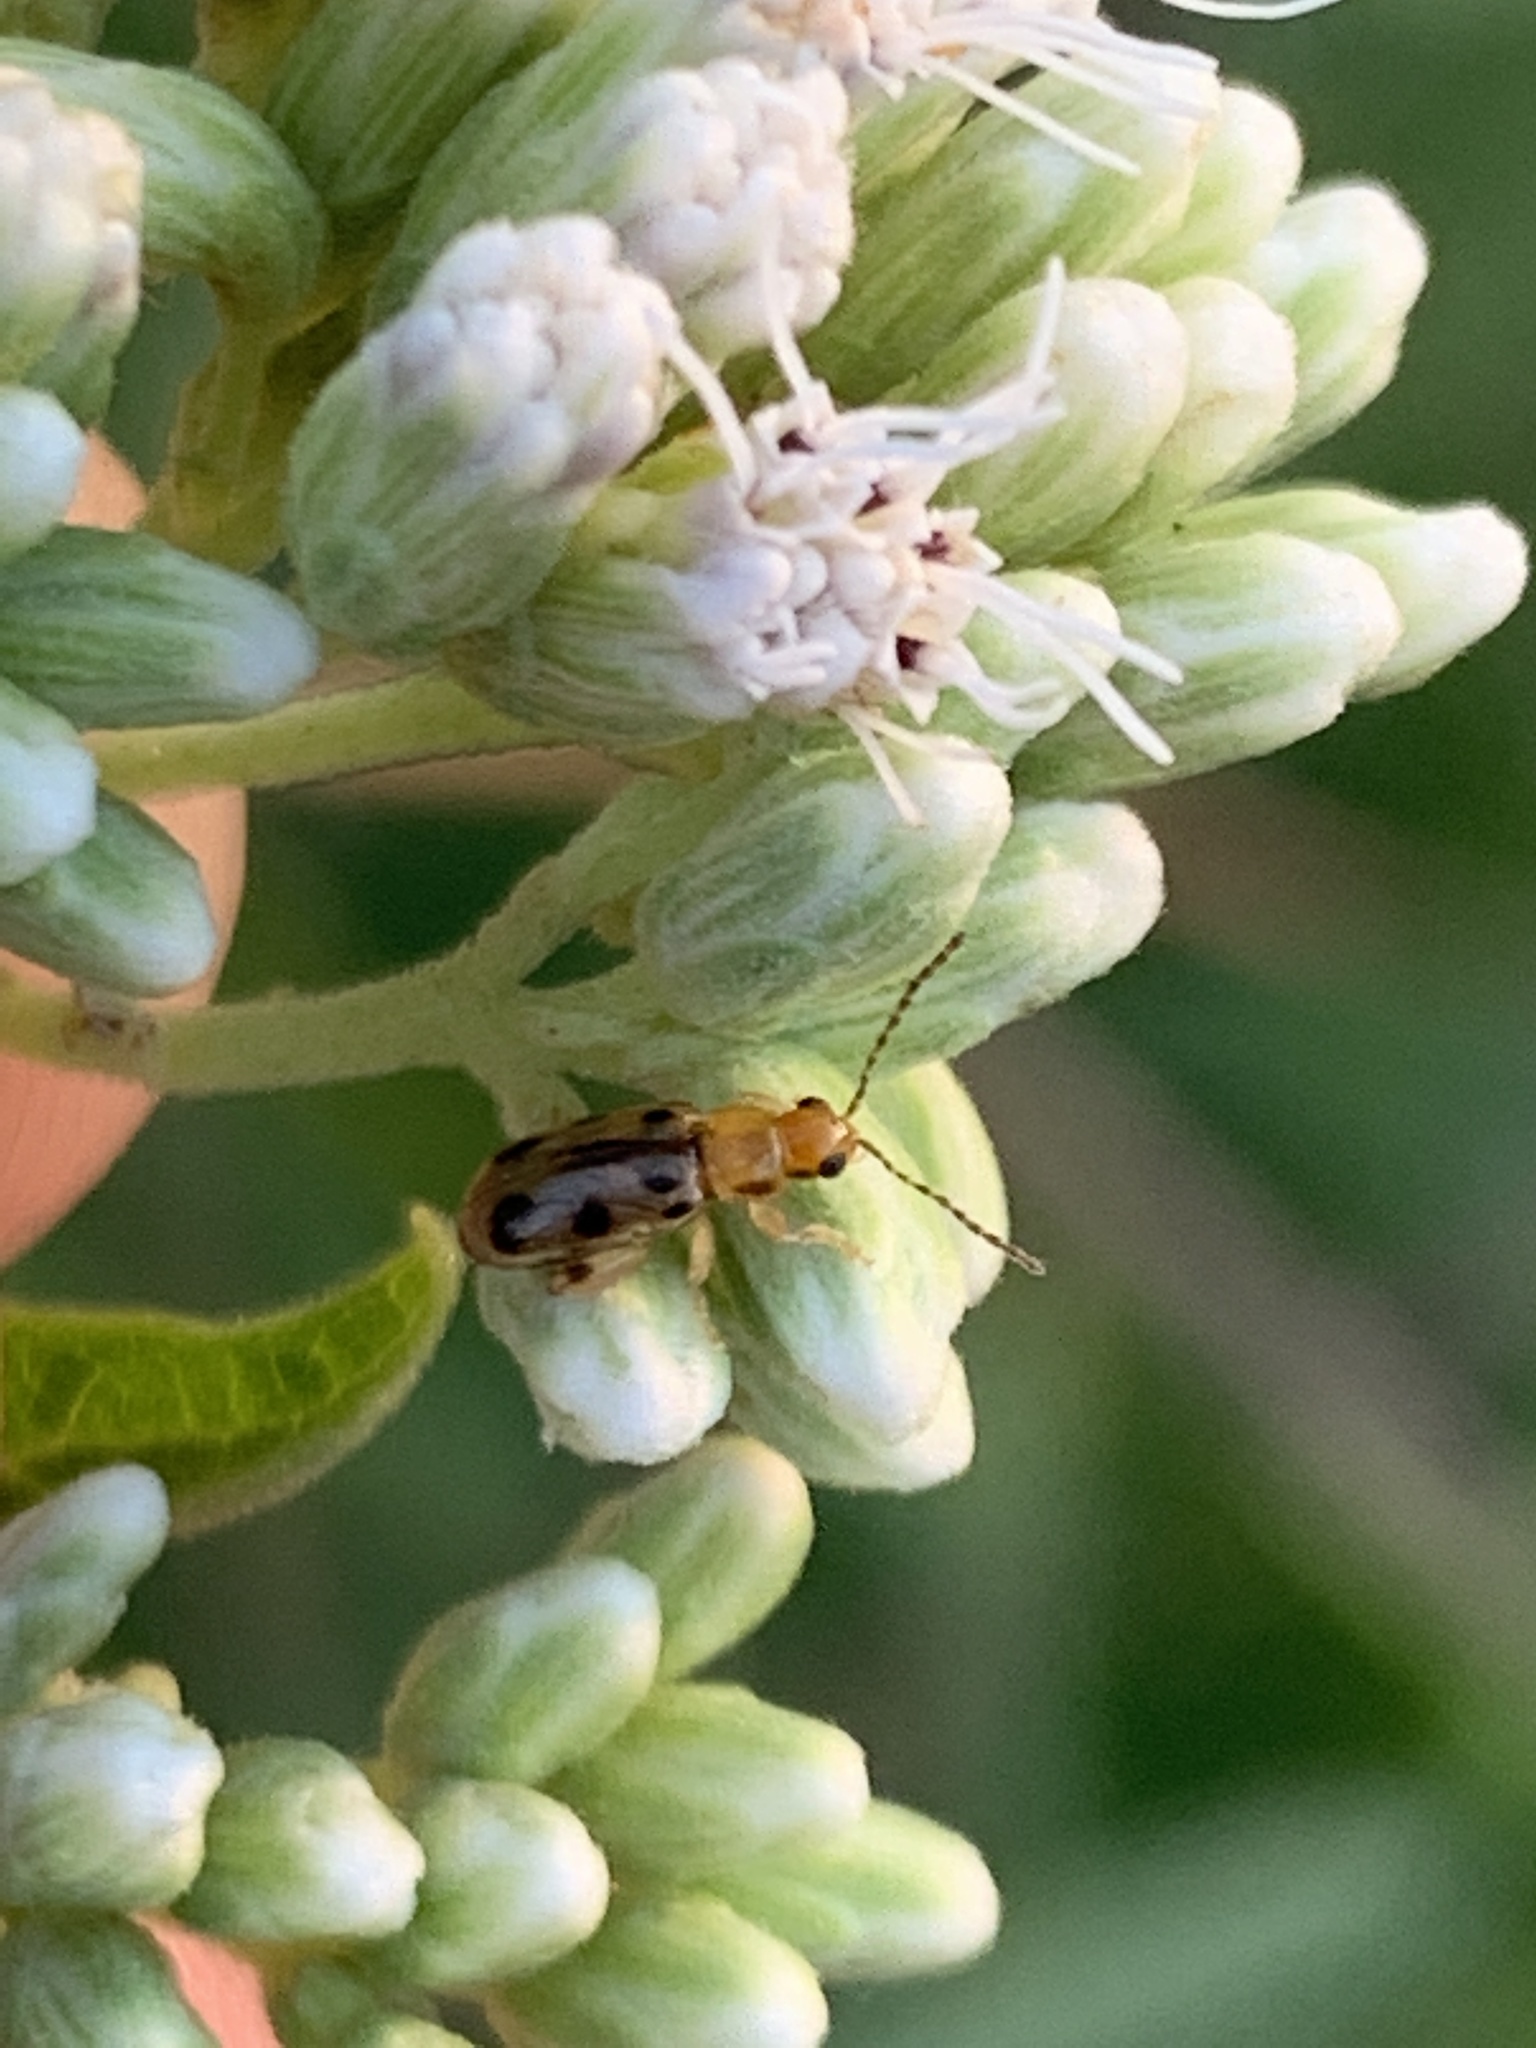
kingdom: Animalia
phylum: Arthropoda
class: Insecta
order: Coleoptera
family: Chrysomelidae
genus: Systena
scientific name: Systena
